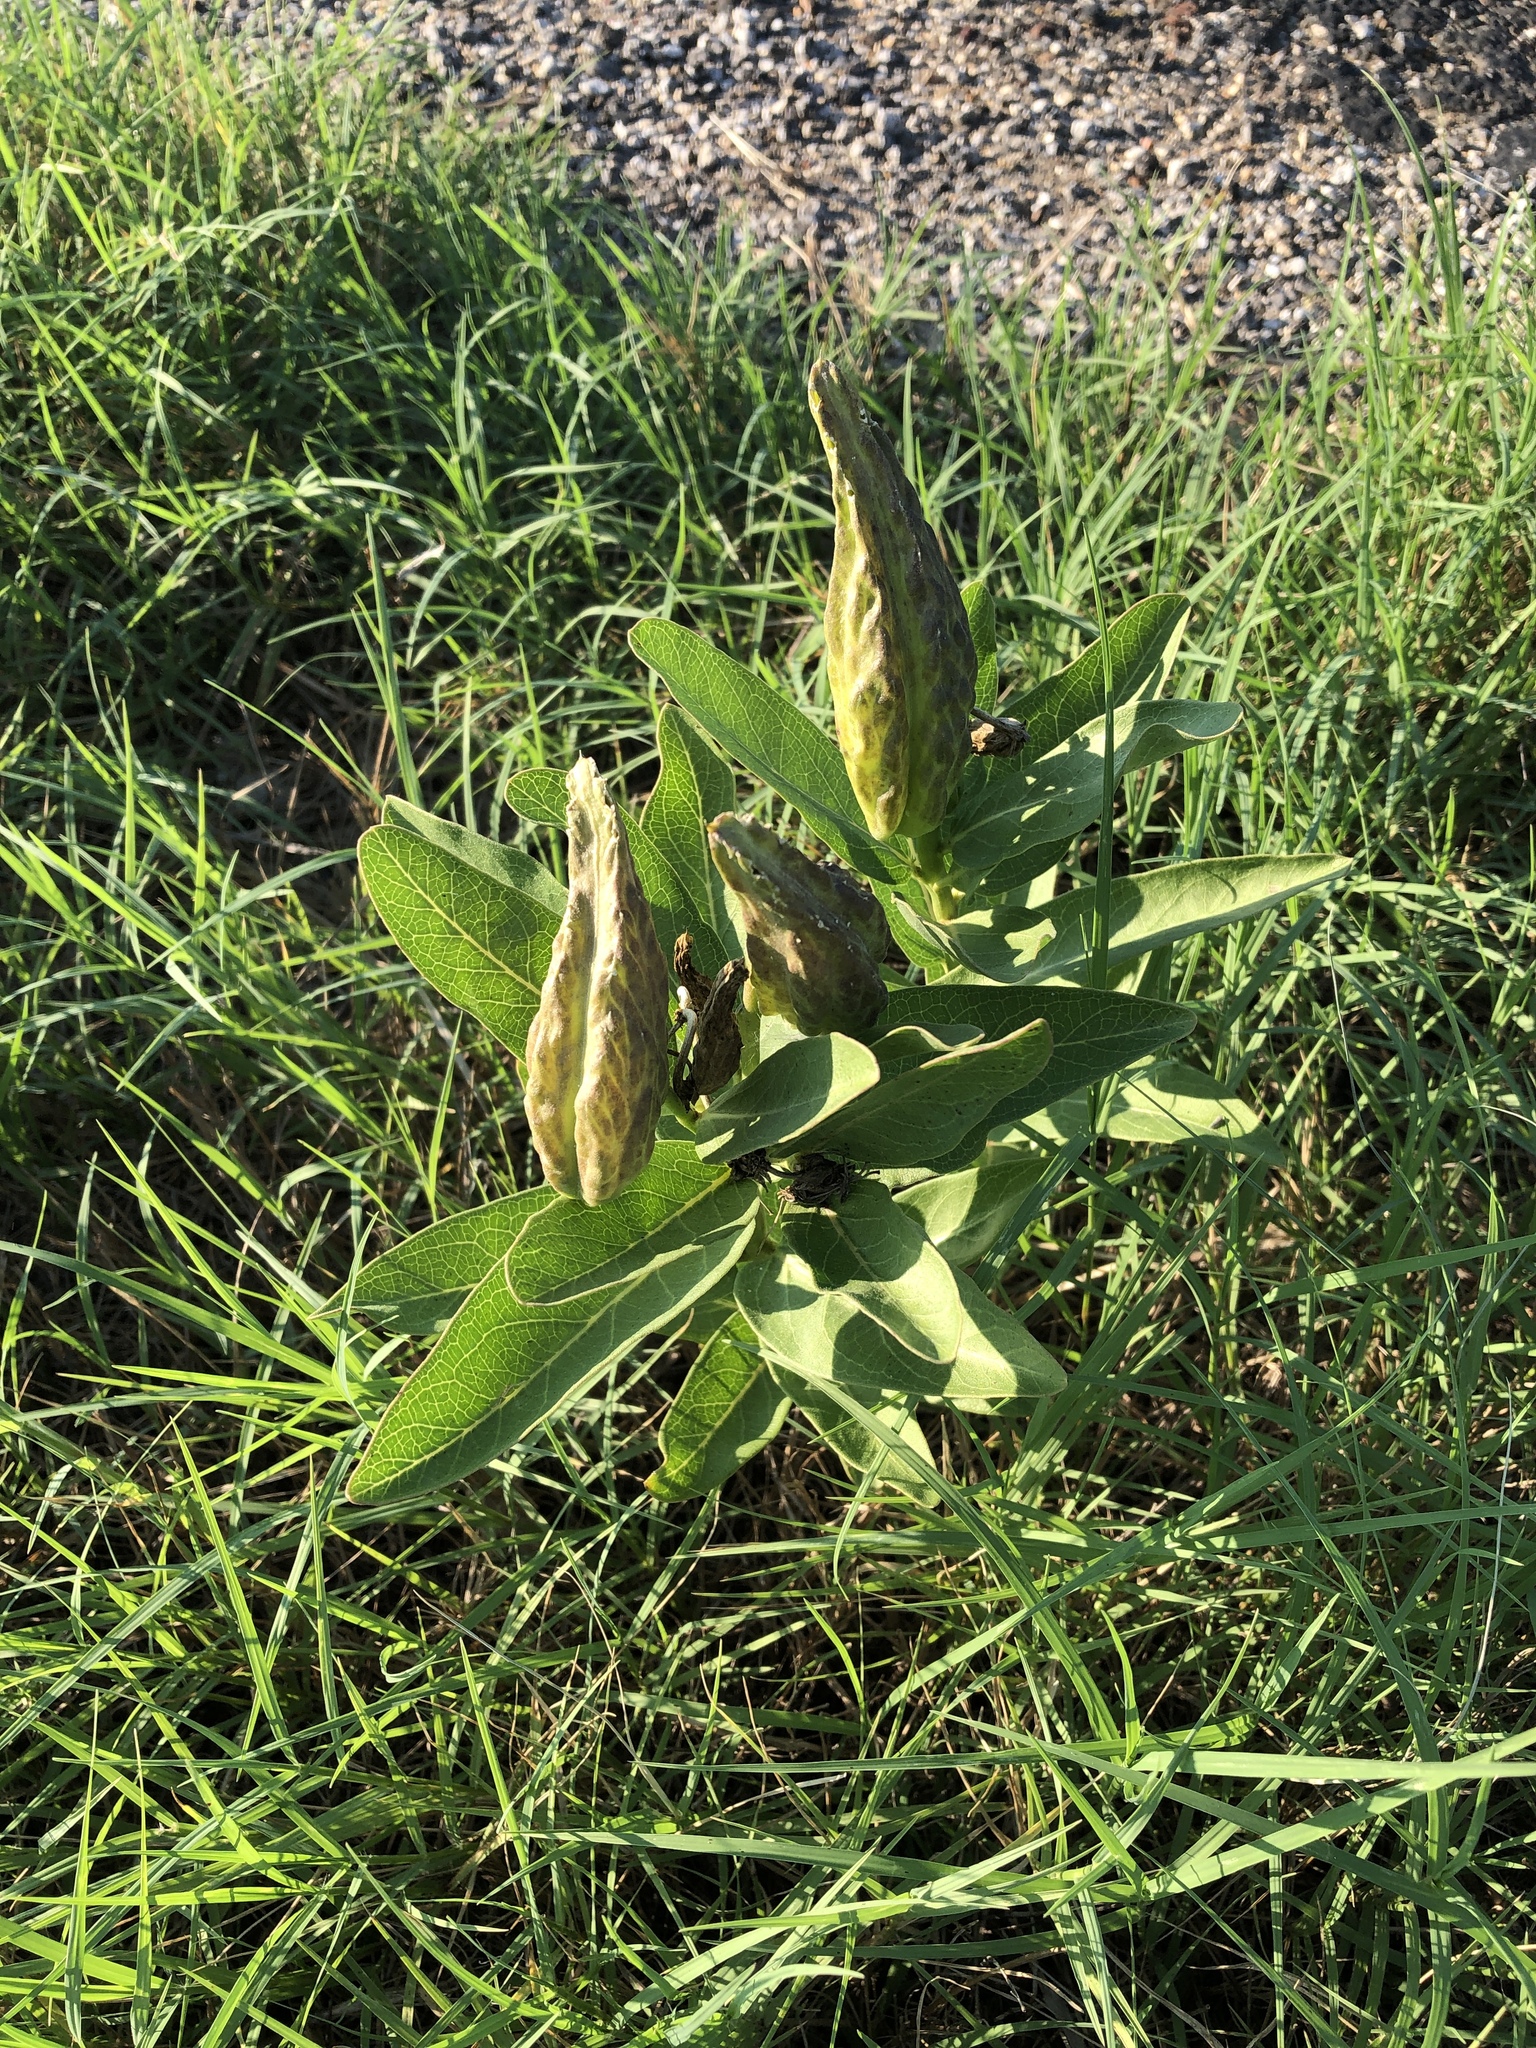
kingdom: Plantae
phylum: Tracheophyta
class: Magnoliopsida
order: Gentianales
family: Apocynaceae
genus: Asclepias
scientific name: Asclepias viridis
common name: Antelope-horns
